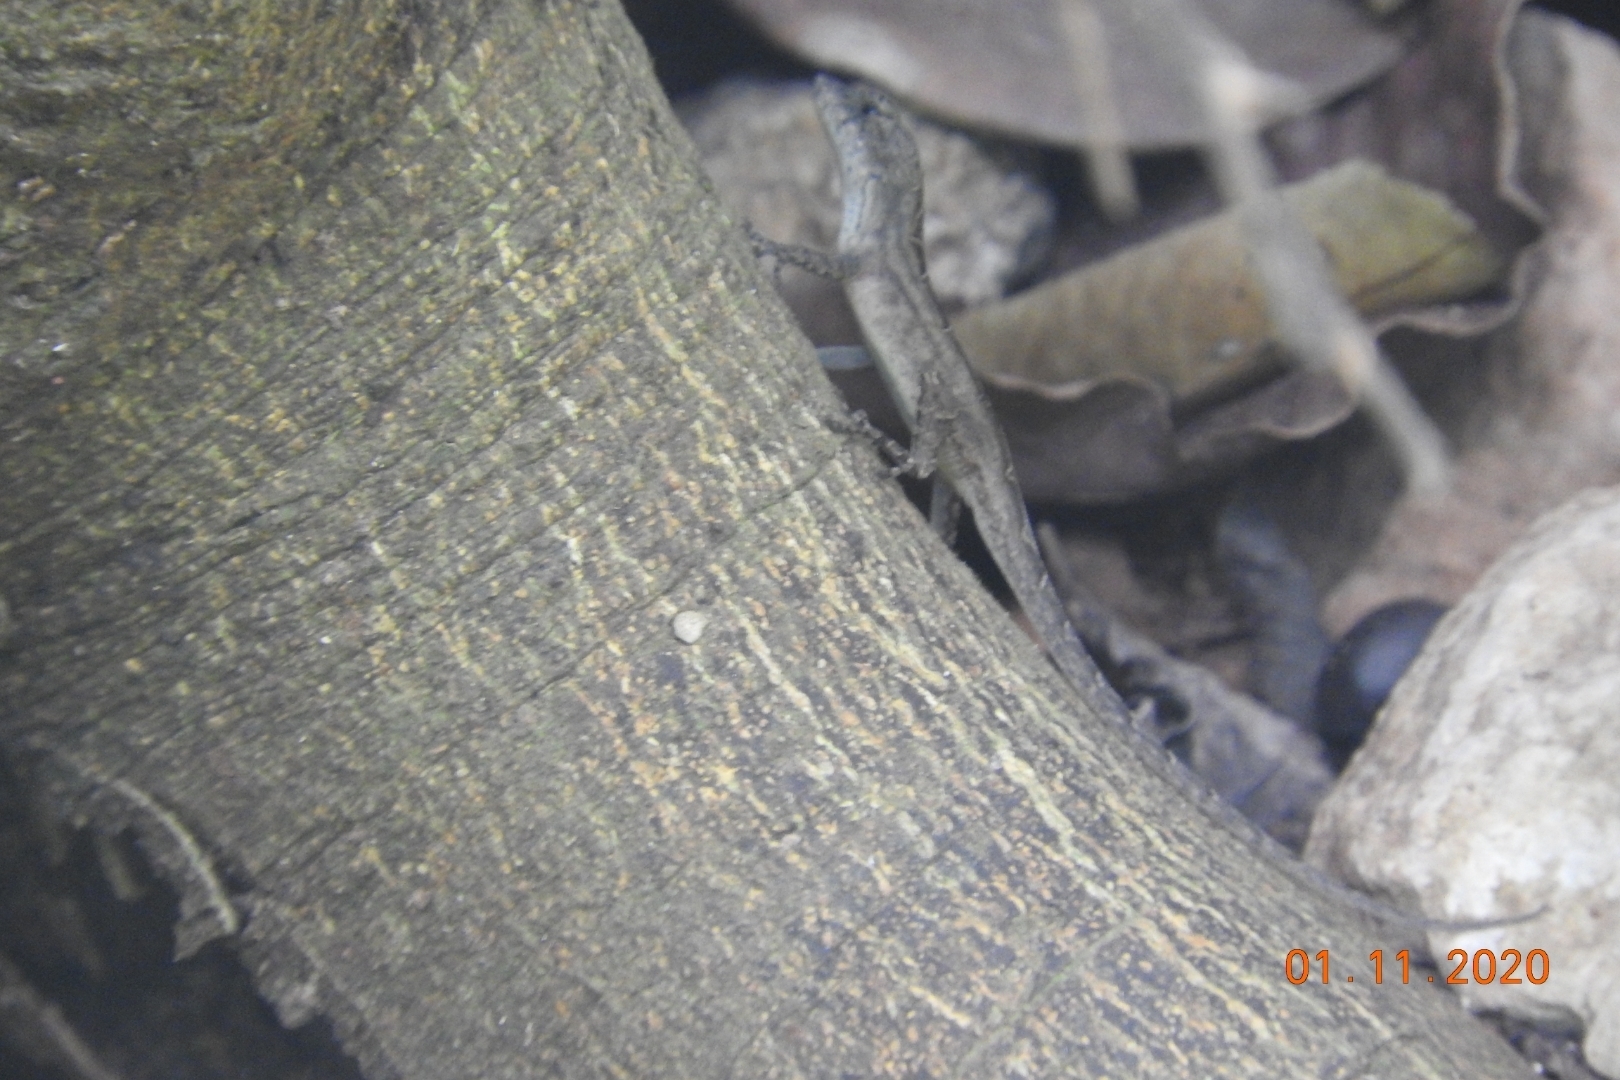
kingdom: Animalia
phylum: Chordata
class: Squamata
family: Dactyloidae
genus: Anolis
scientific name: Anolis sagrei
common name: Brown anole
